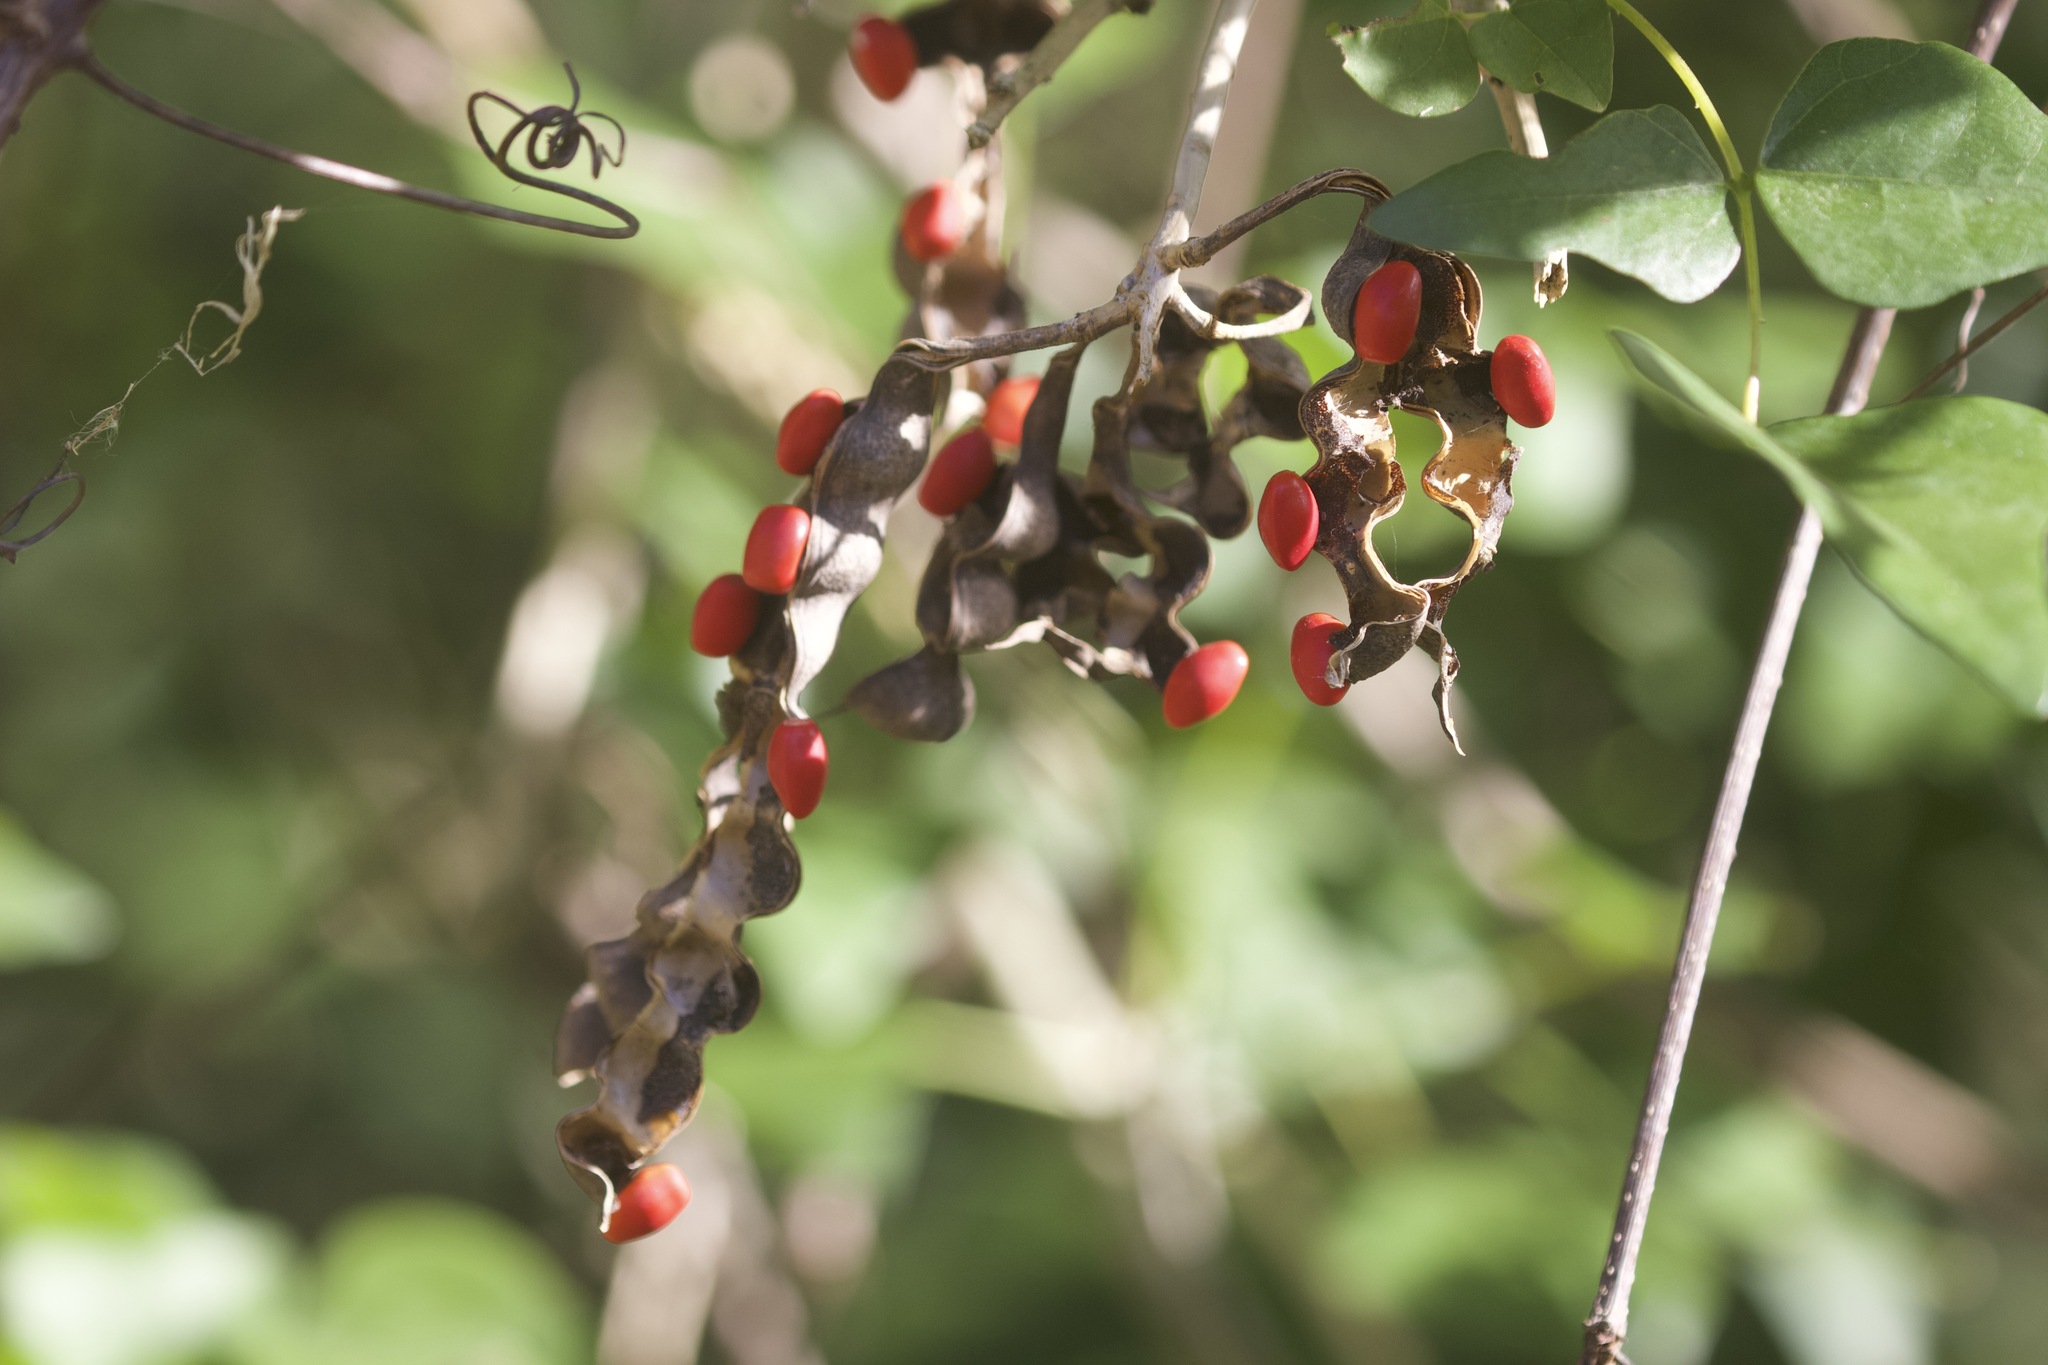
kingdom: Plantae
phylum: Tracheophyta
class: Magnoliopsida
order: Fabales
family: Fabaceae
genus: Erythrina
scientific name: Erythrina herbacea
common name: Coral-bean
